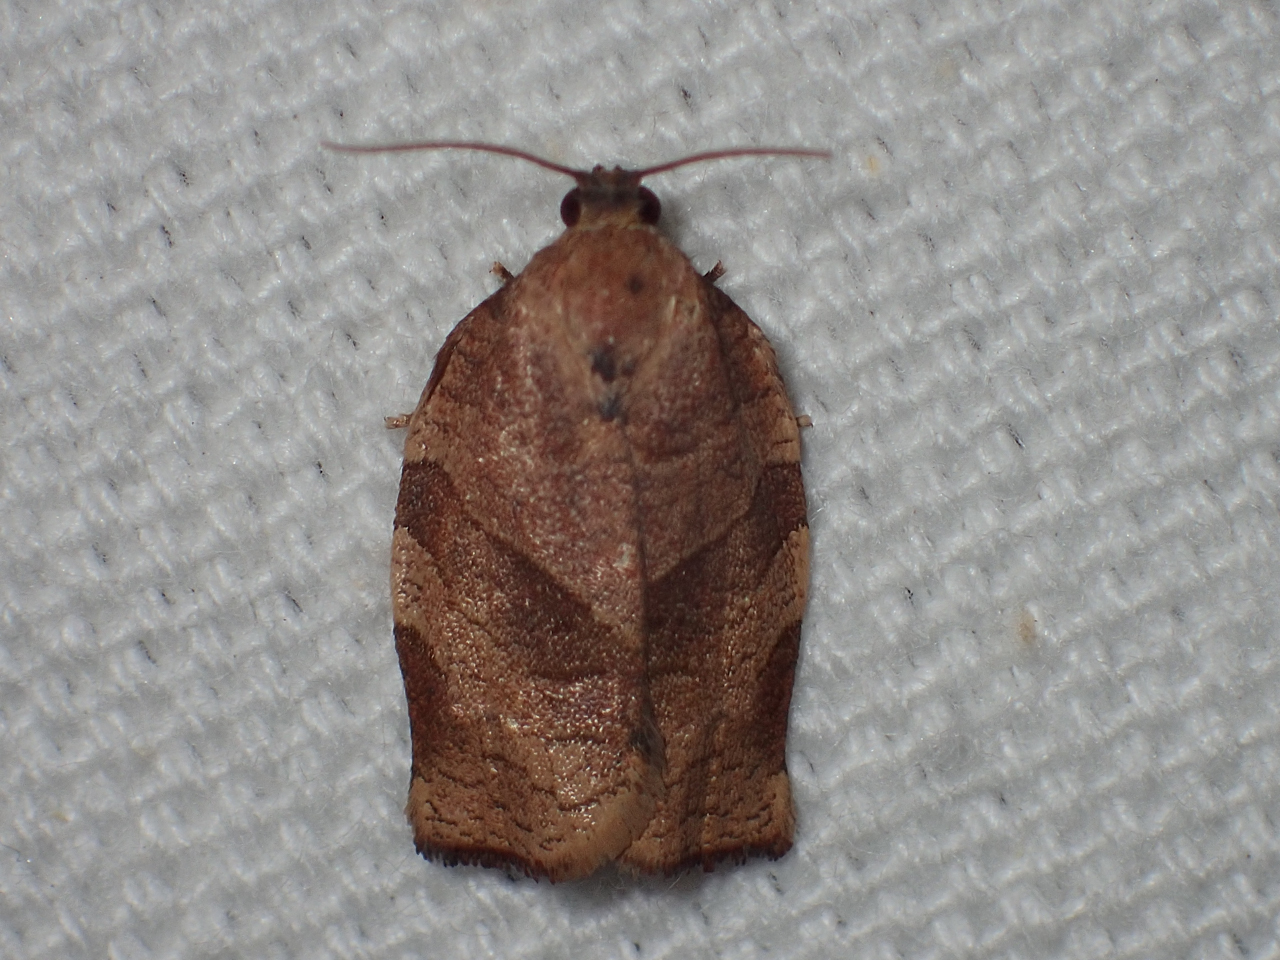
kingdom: Animalia
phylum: Arthropoda
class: Insecta
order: Lepidoptera
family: Tortricidae
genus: Choristoneura
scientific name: Choristoneura rosaceana
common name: Oblique-banded leafroller moth
